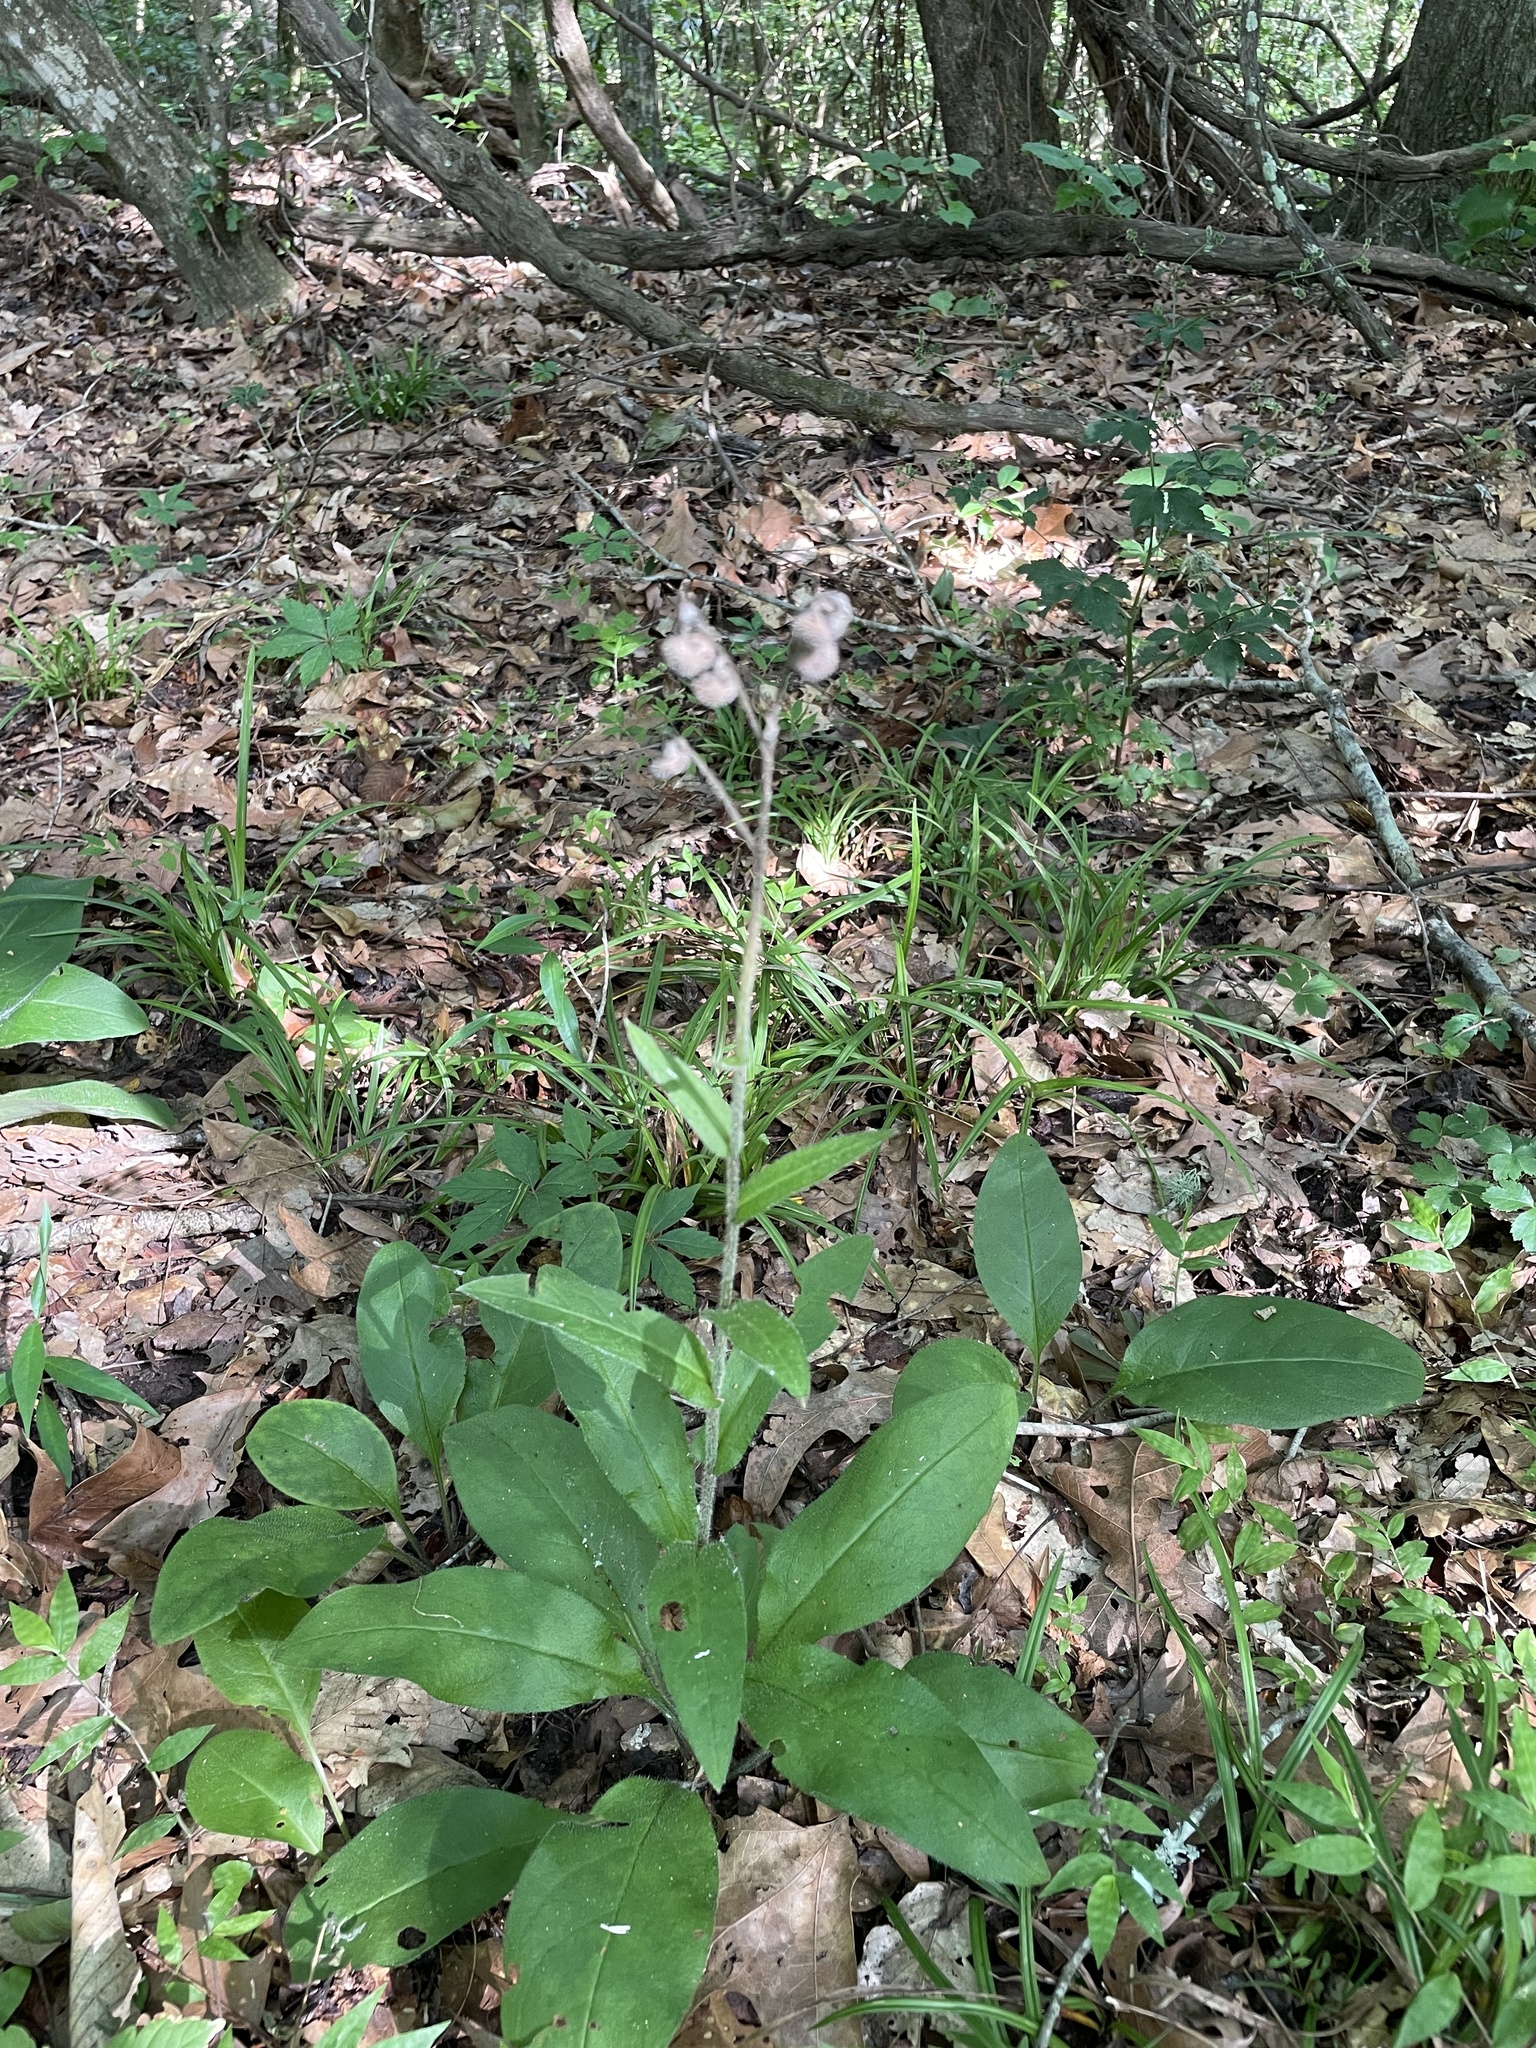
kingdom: Plantae
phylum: Tracheophyta
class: Magnoliopsida
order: Boraginales
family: Boraginaceae
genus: Andersonglossum
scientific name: Andersonglossum virginianum
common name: Wild comfrey
